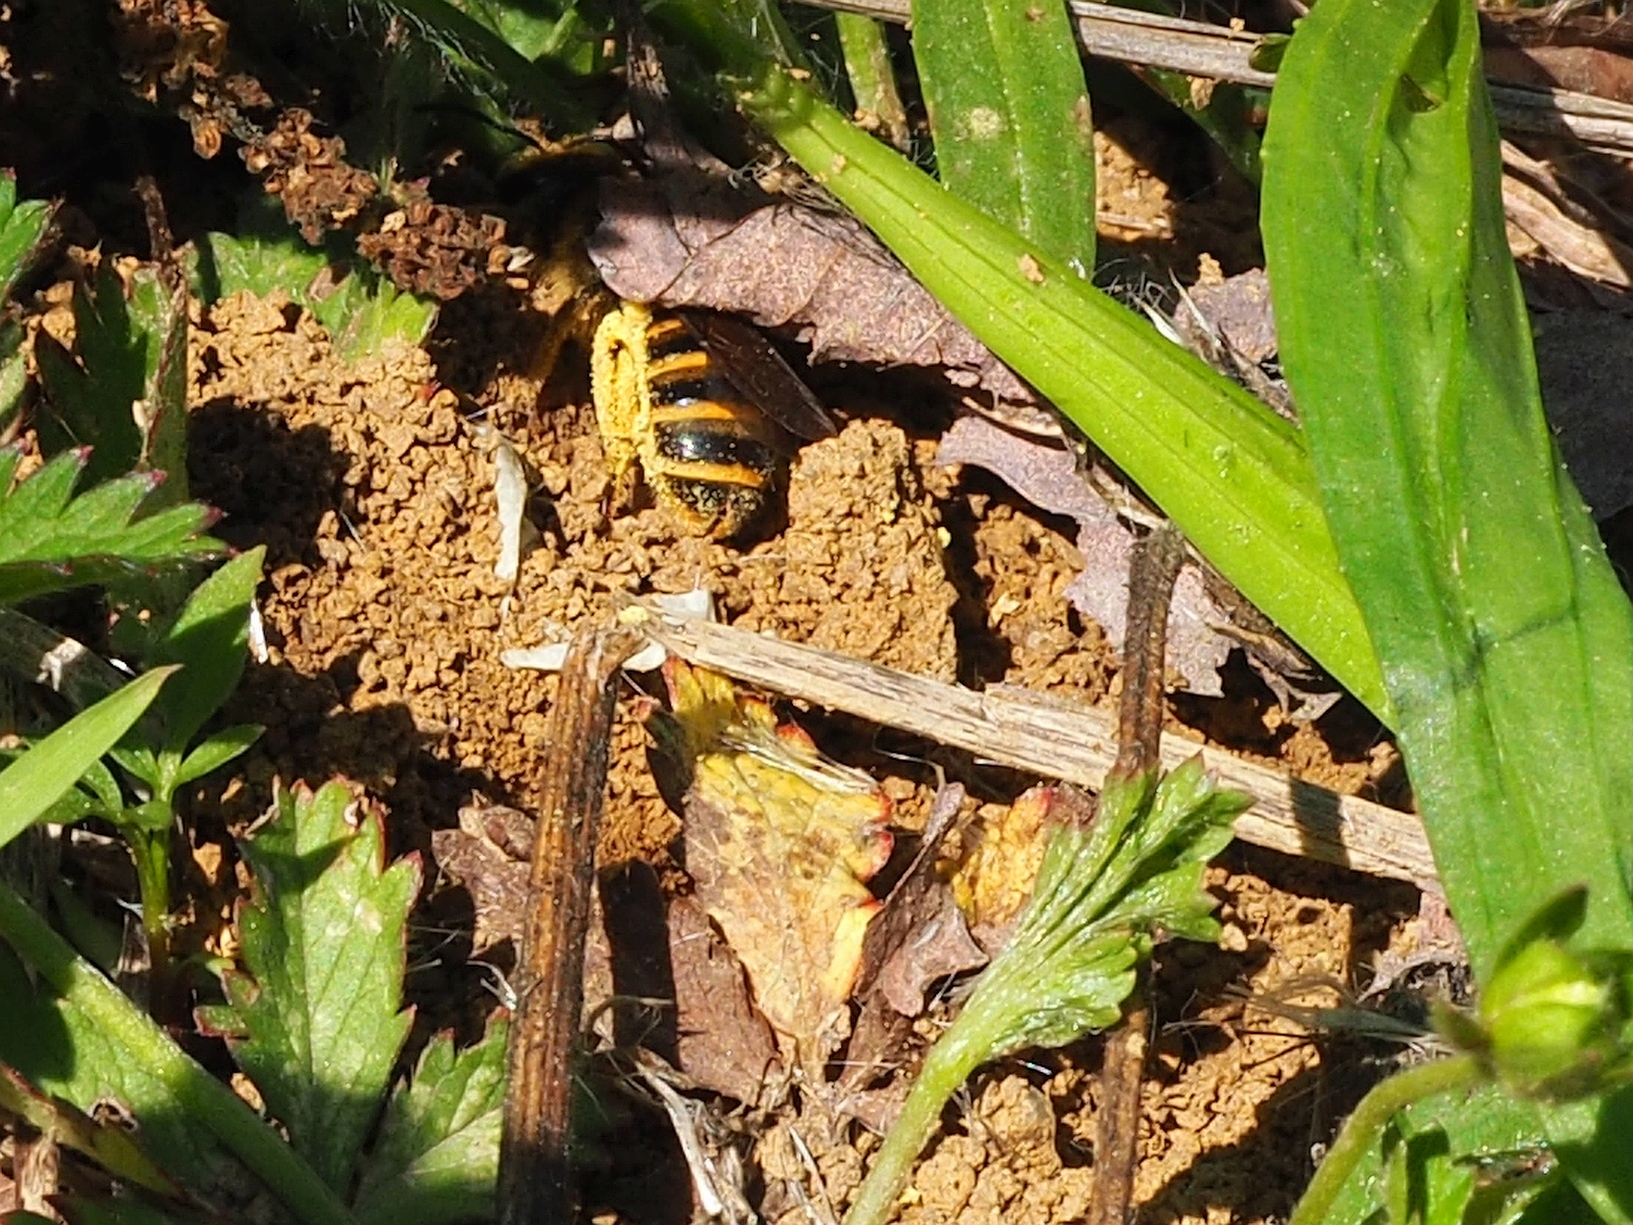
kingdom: Animalia
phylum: Arthropoda
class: Insecta
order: Hymenoptera
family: Halictidae
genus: Halictus
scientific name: Halictus scabiosae
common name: Great banded furrow bee
